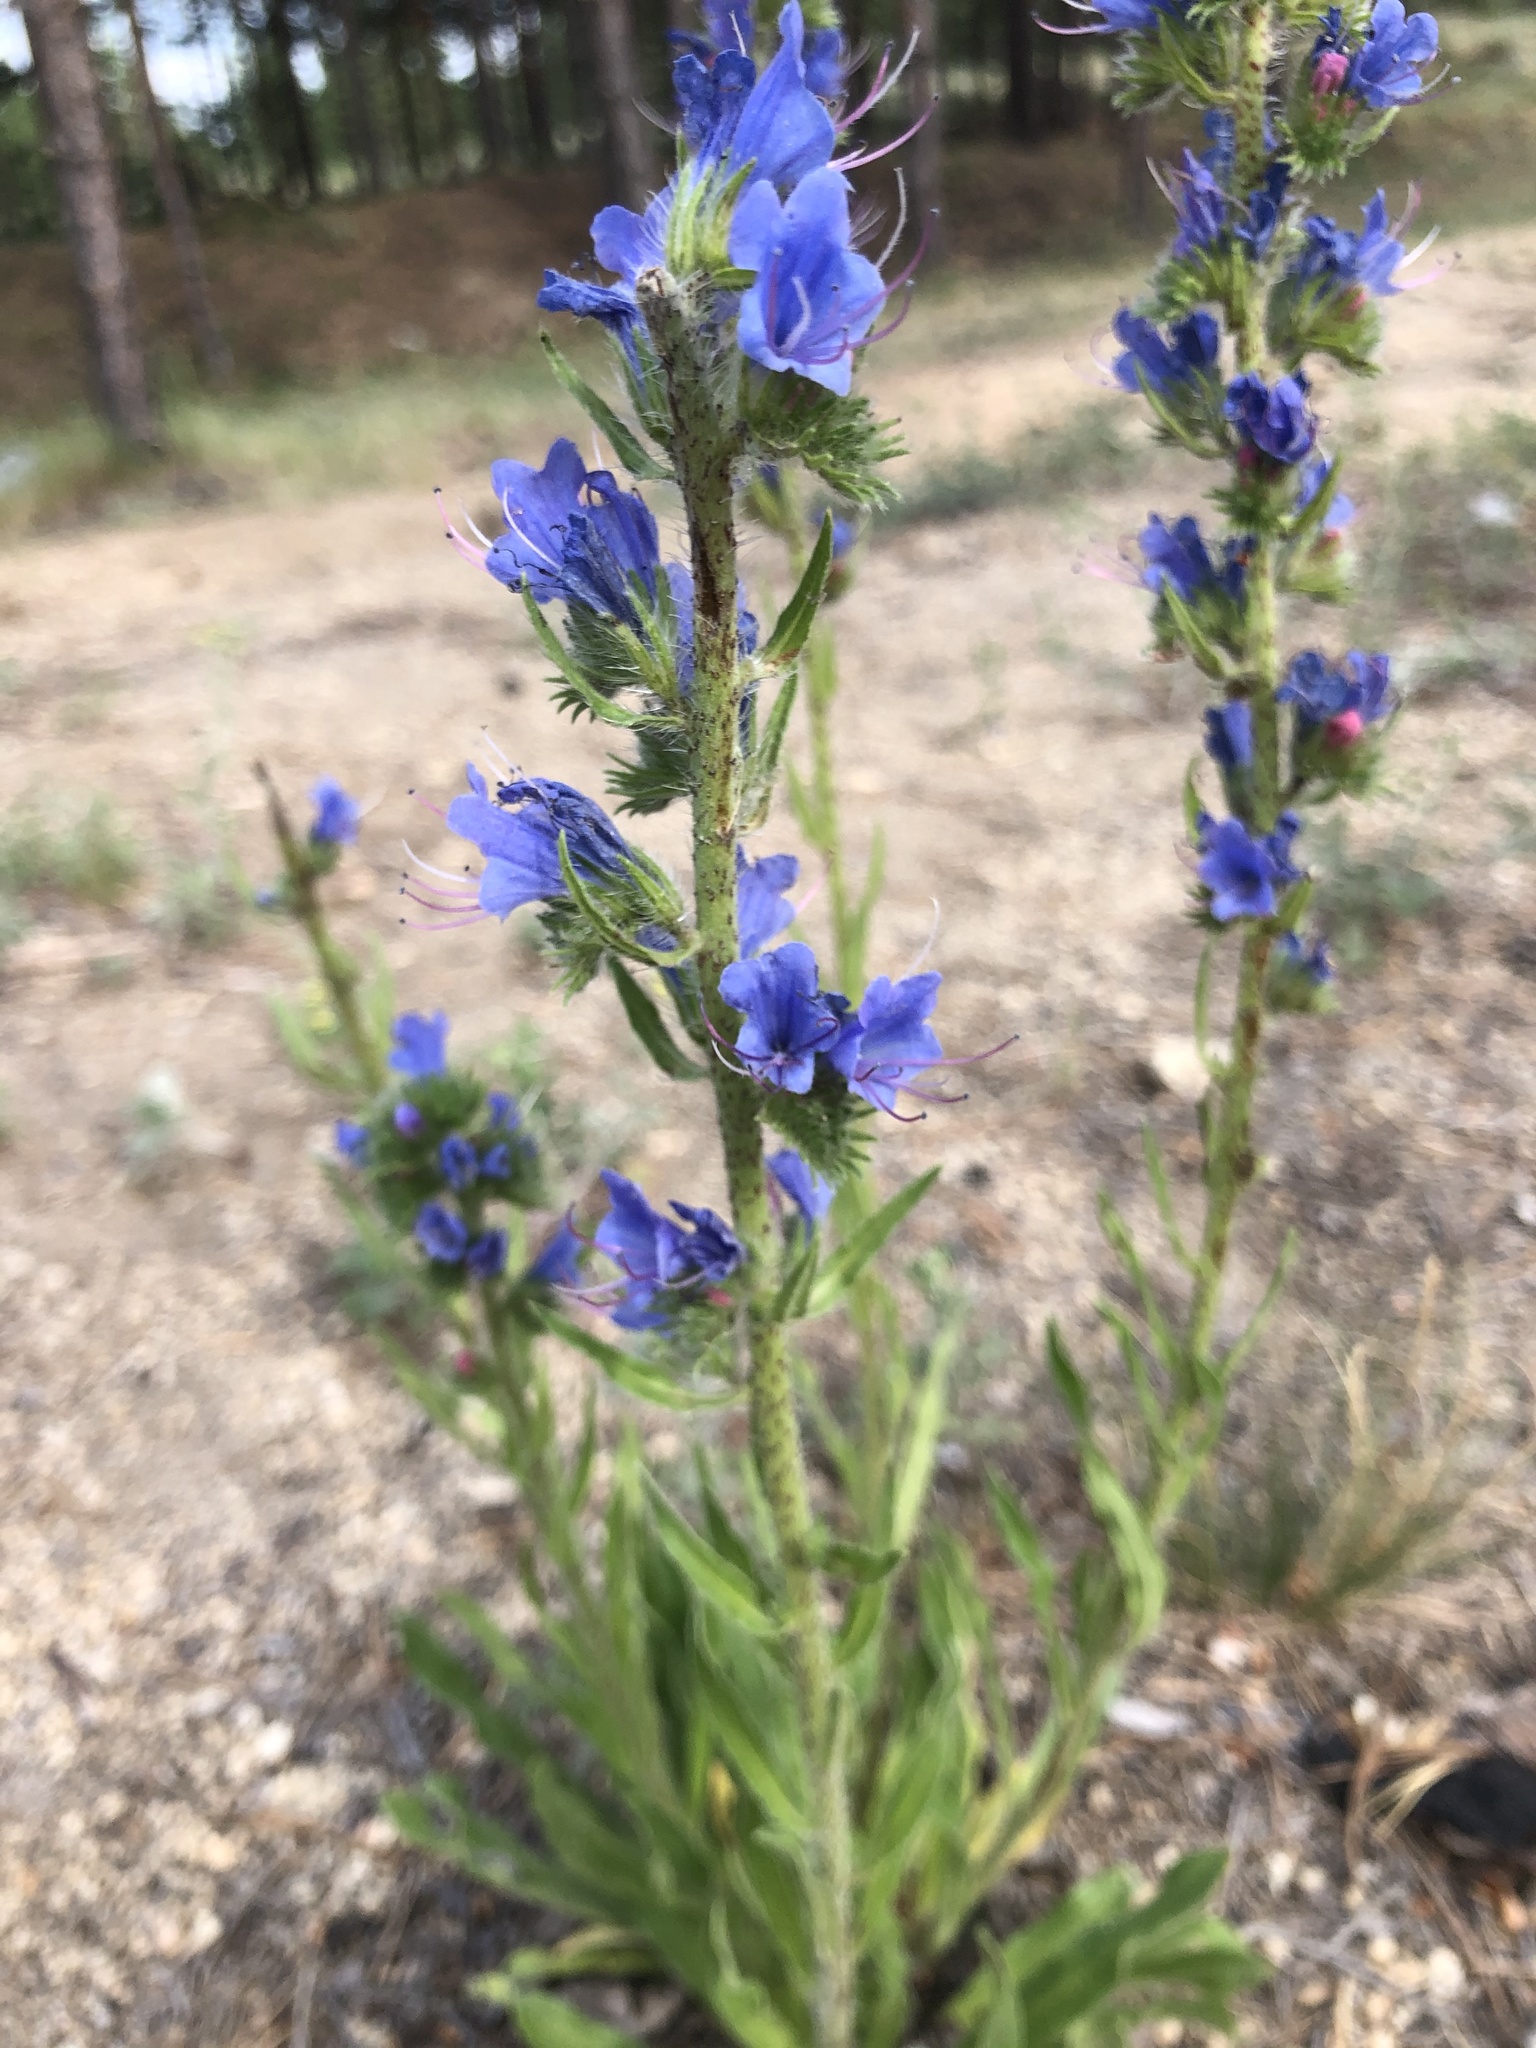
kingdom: Plantae
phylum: Tracheophyta
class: Magnoliopsida
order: Boraginales
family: Boraginaceae
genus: Echium
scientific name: Echium vulgare
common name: Common viper's bugloss
